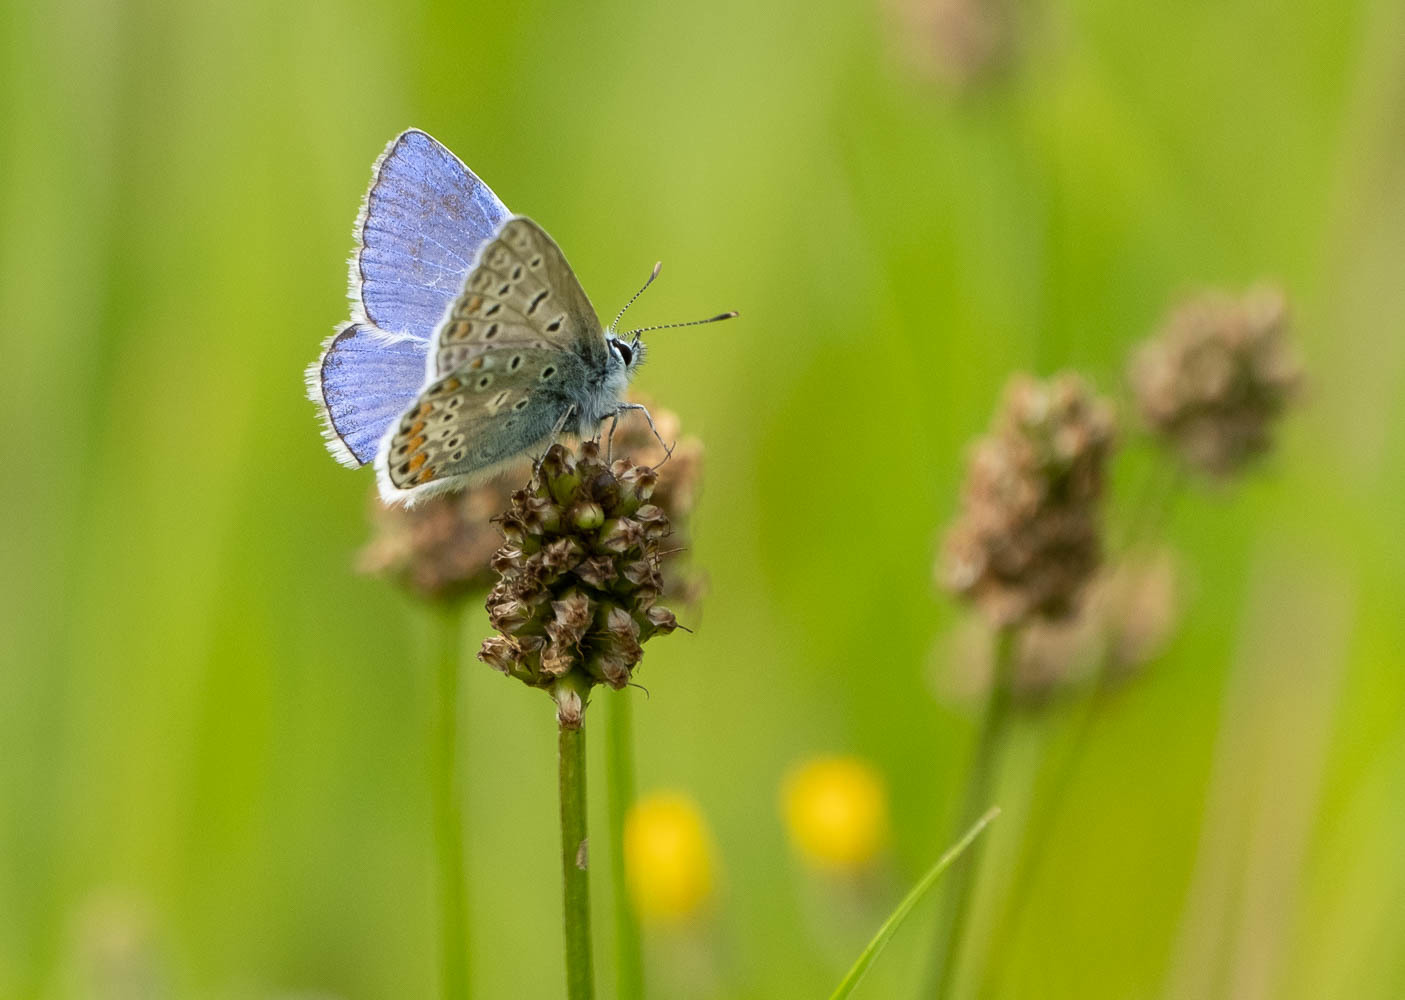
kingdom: Animalia
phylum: Arthropoda
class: Insecta
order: Lepidoptera
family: Lycaenidae
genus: Polyommatus
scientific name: Polyommatus icarus
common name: Common blue
